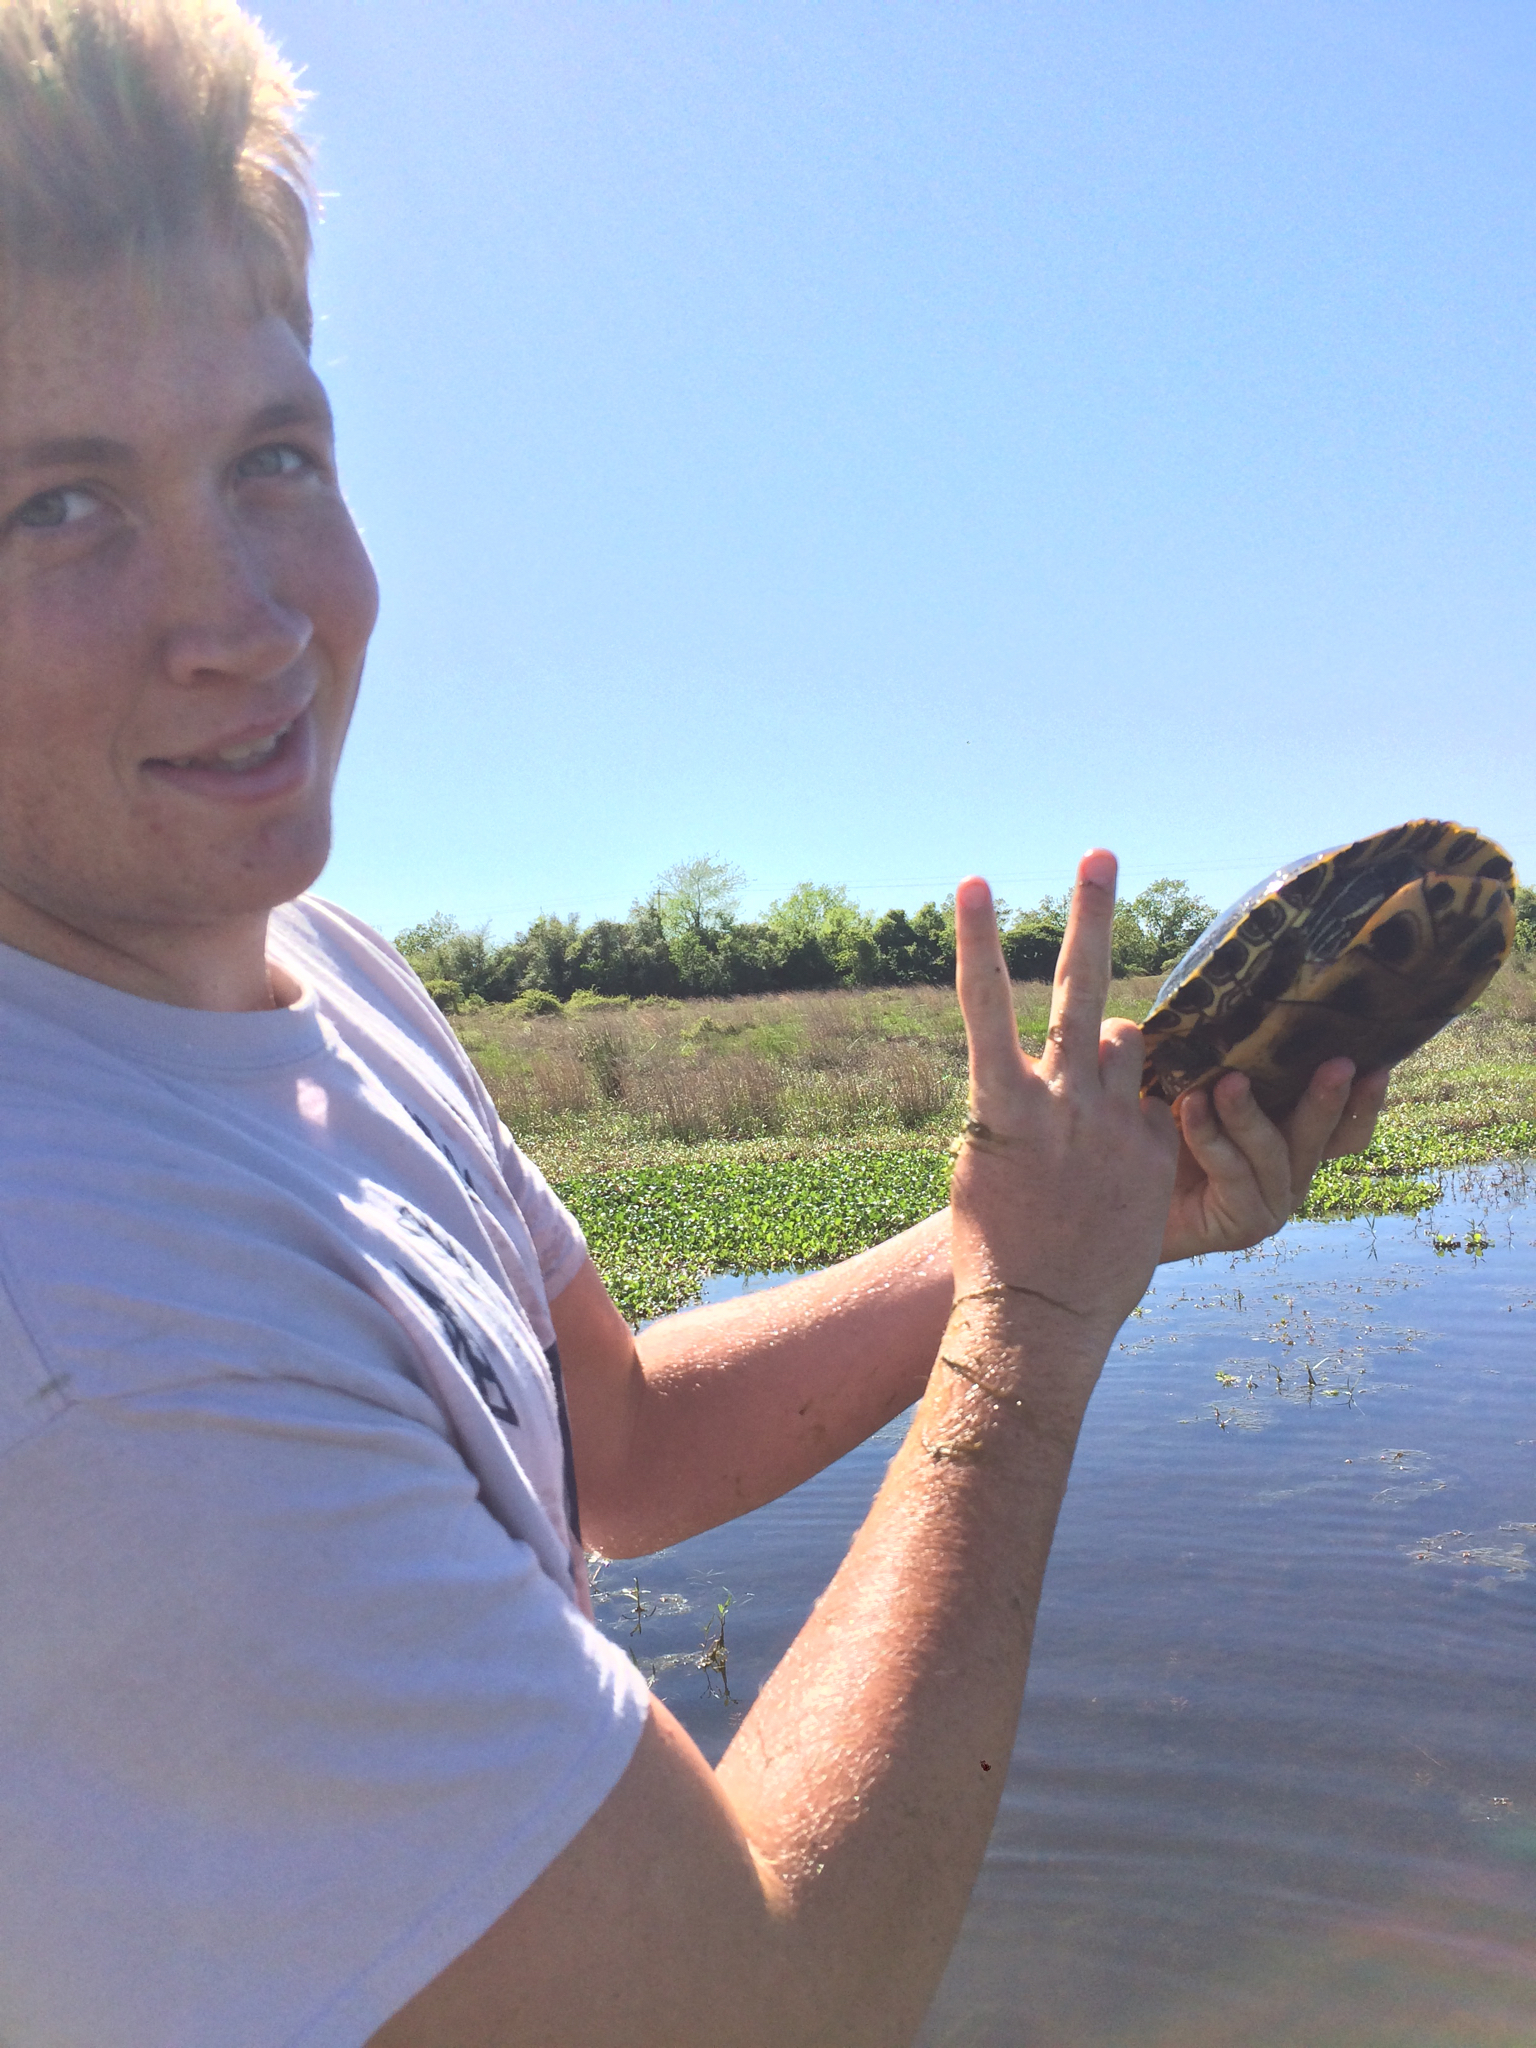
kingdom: Animalia
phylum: Chordata
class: Testudines
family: Emydidae
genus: Trachemys
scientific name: Trachemys scripta
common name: Slider
